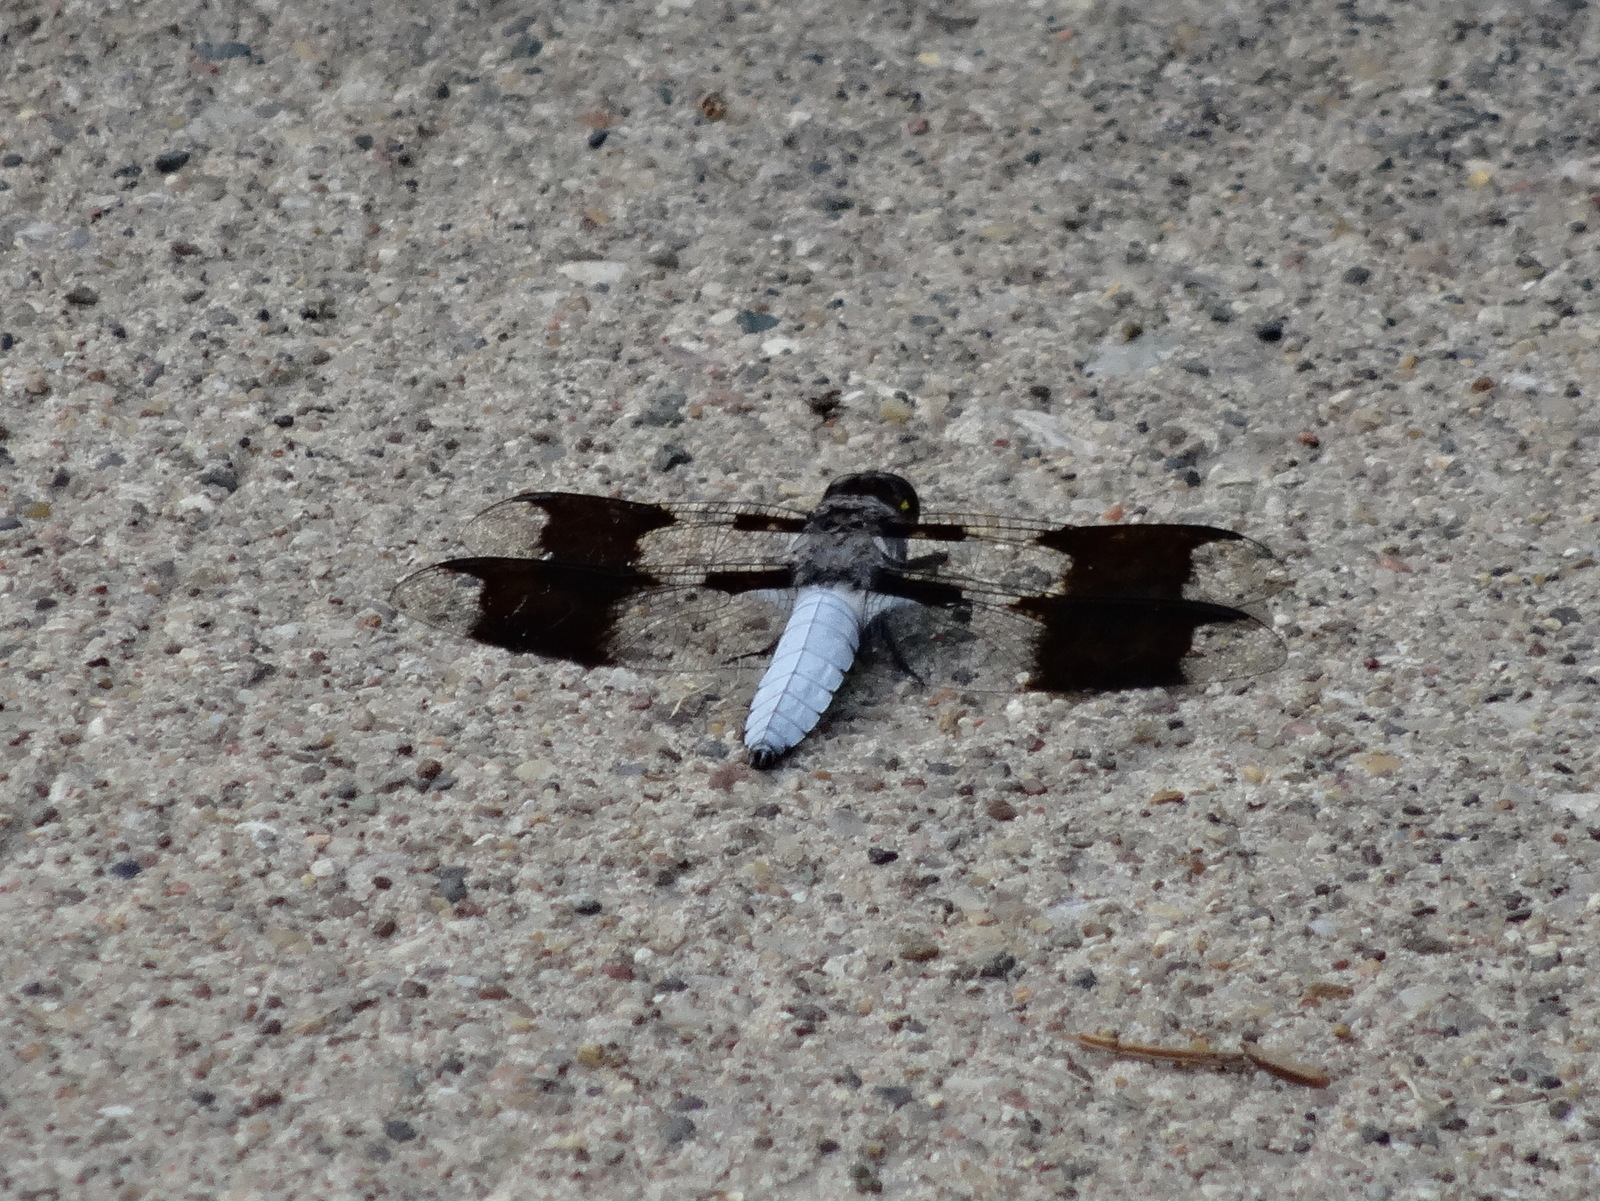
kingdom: Animalia
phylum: Arthropoda
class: Insecta
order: Odonata
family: Libellulidae
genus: Plathemis
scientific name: Plathemis lydia
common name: Common whitetail
